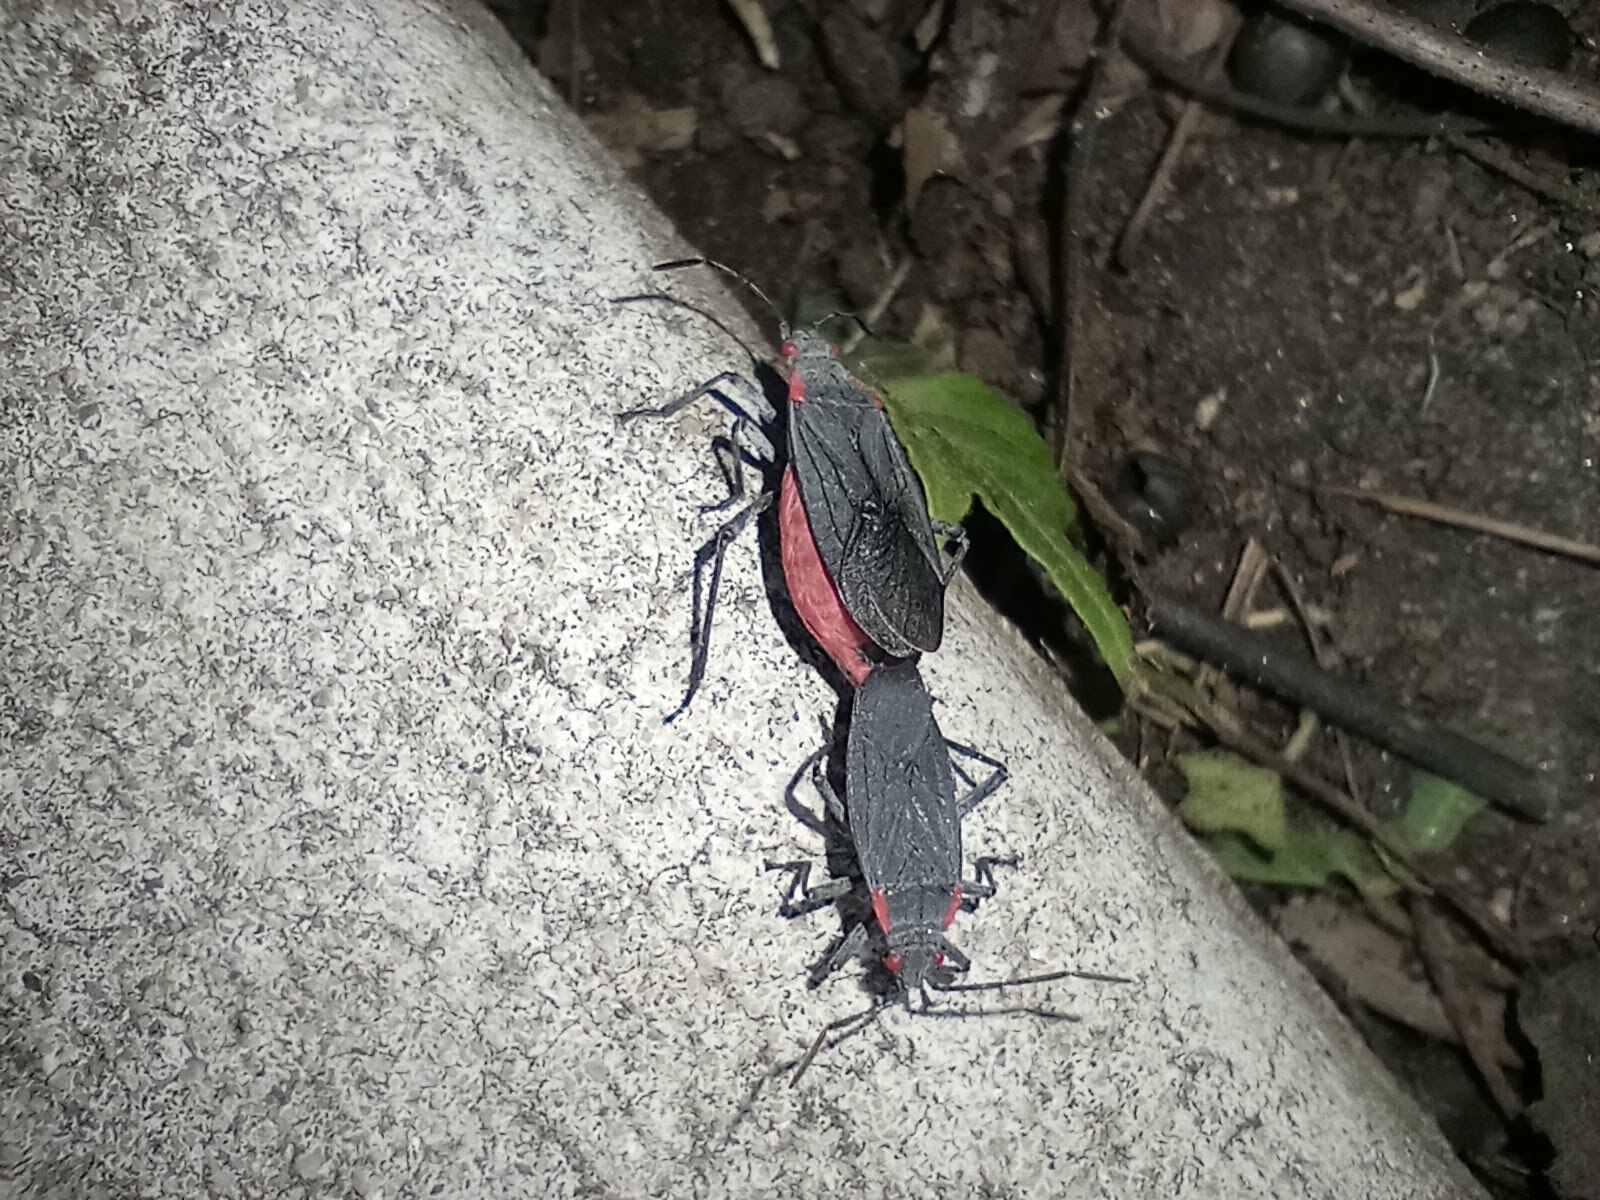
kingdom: Animalia
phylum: Arthropoda
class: Insecta
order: Hemiptera
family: Rhopalidae
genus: Jadera
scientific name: Jadera haematoloma
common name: Red-shouldered bug
